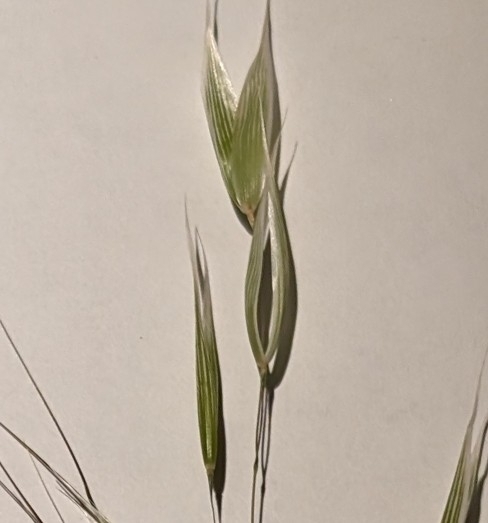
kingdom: Plantae
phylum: Tracheophyta
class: Liliopsida
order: Poales
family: Poaceae
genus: Avena
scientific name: Avena barbata
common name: Slender oat
